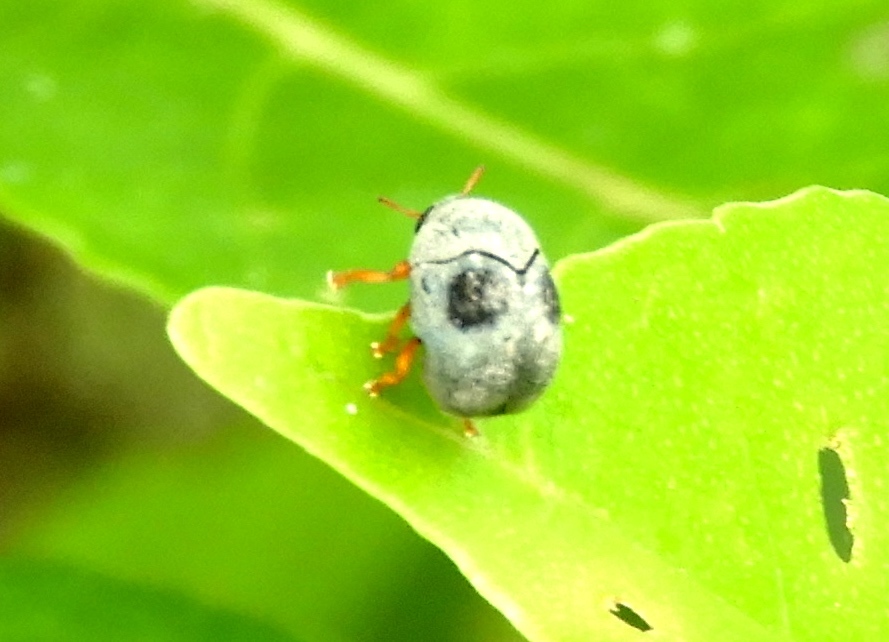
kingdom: Animalia
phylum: Arthropoda
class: Insecta
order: Coleoptera
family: Chrysomelidae
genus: Melittochlamys
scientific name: Melittochlamys
